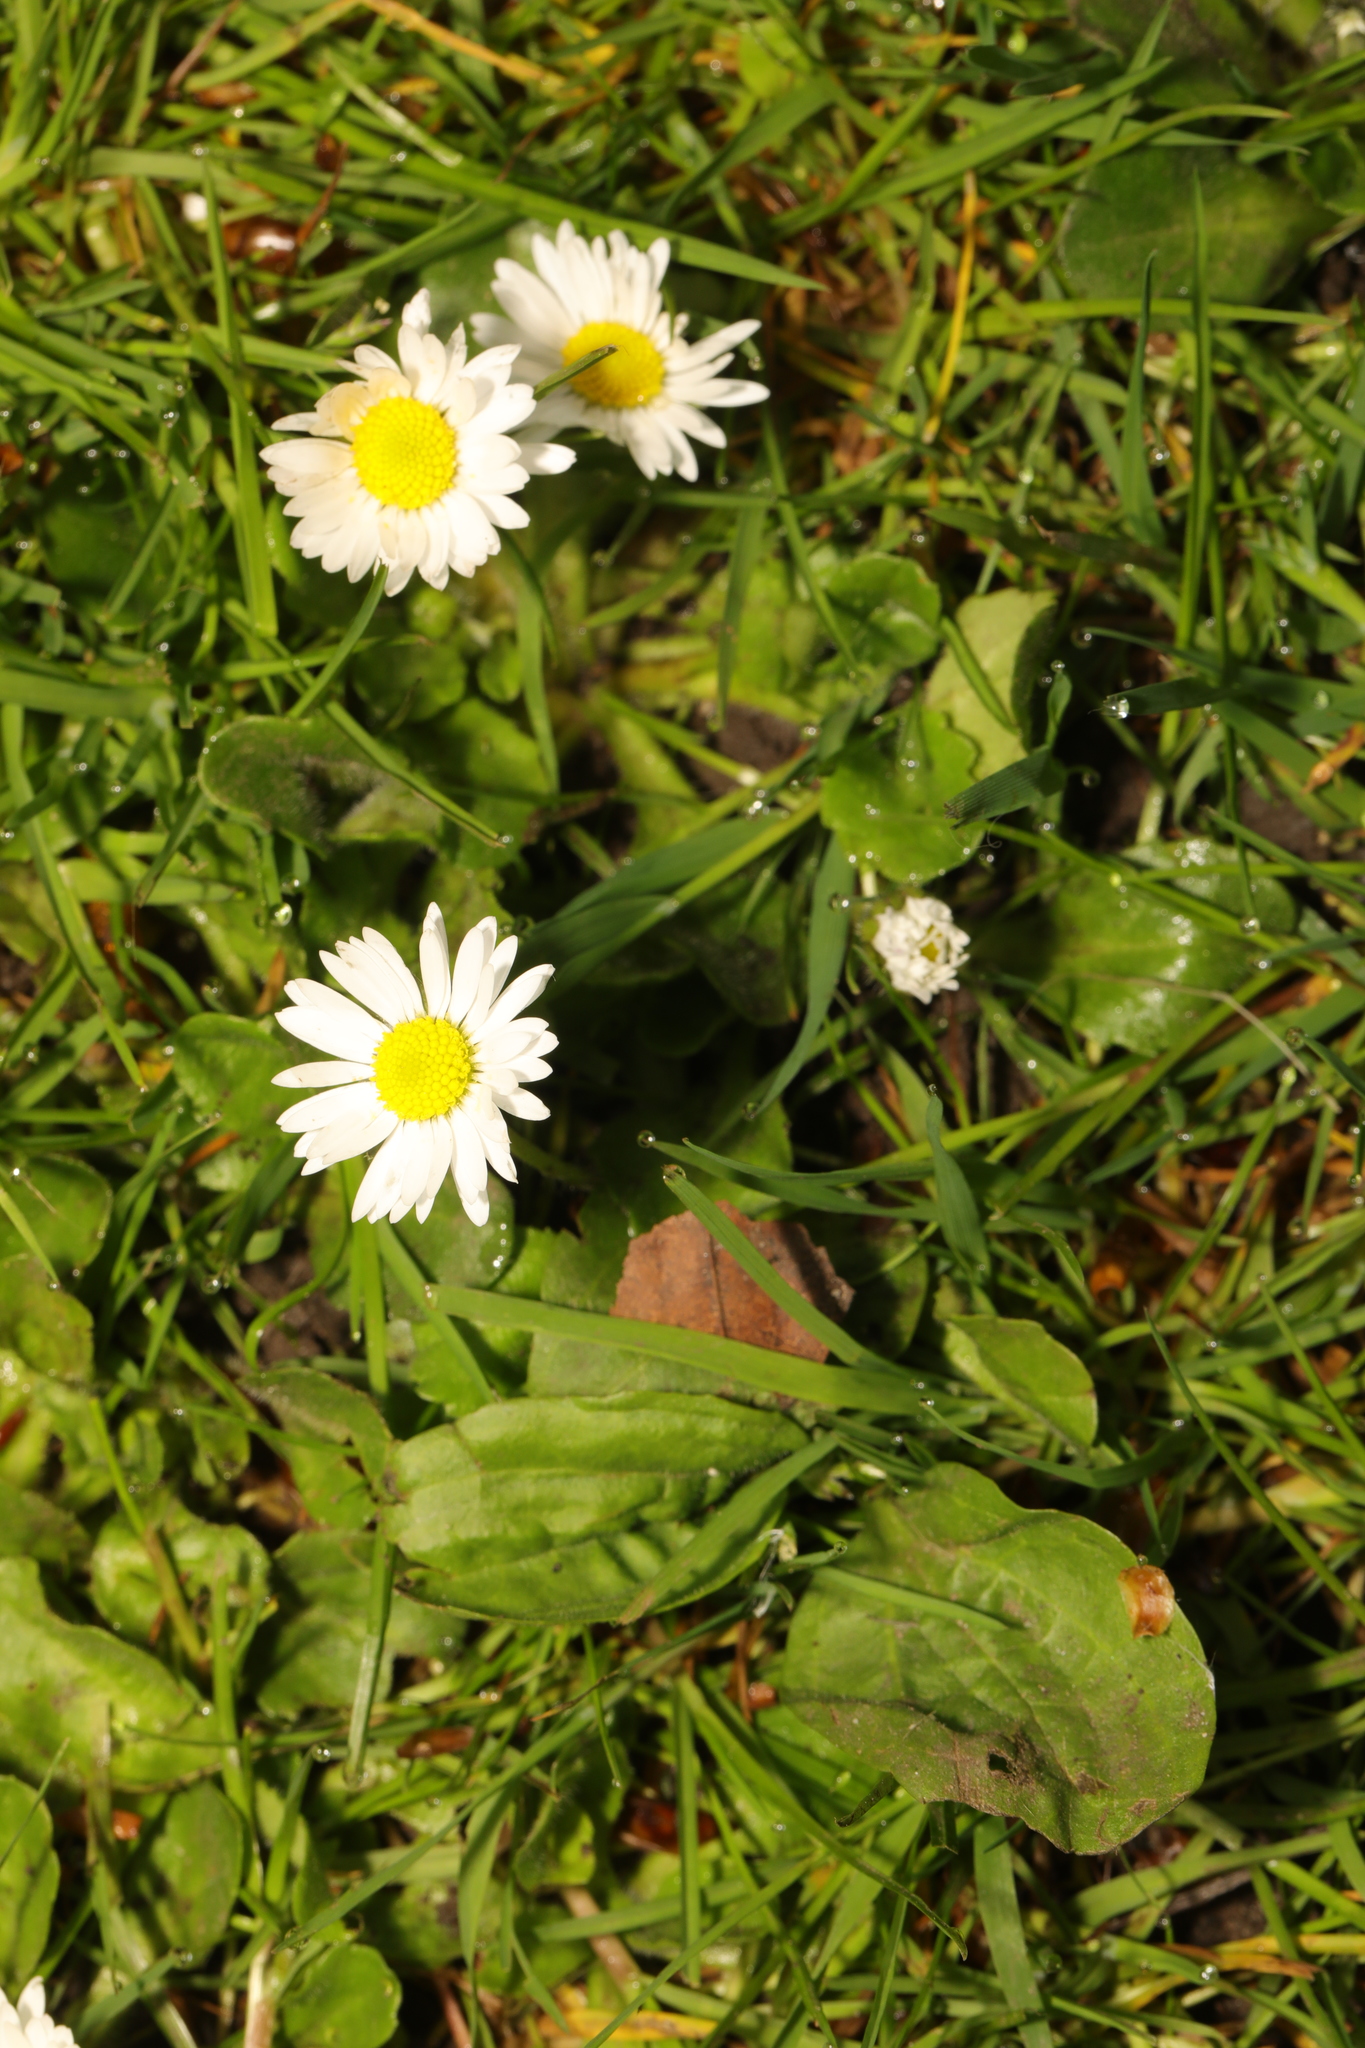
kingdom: Plantae
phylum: Tracheophyta
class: Magnoliopsida
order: Asterales
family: Asteraceae
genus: Bellis
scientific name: Bellis perennis
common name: Lawndaisy
